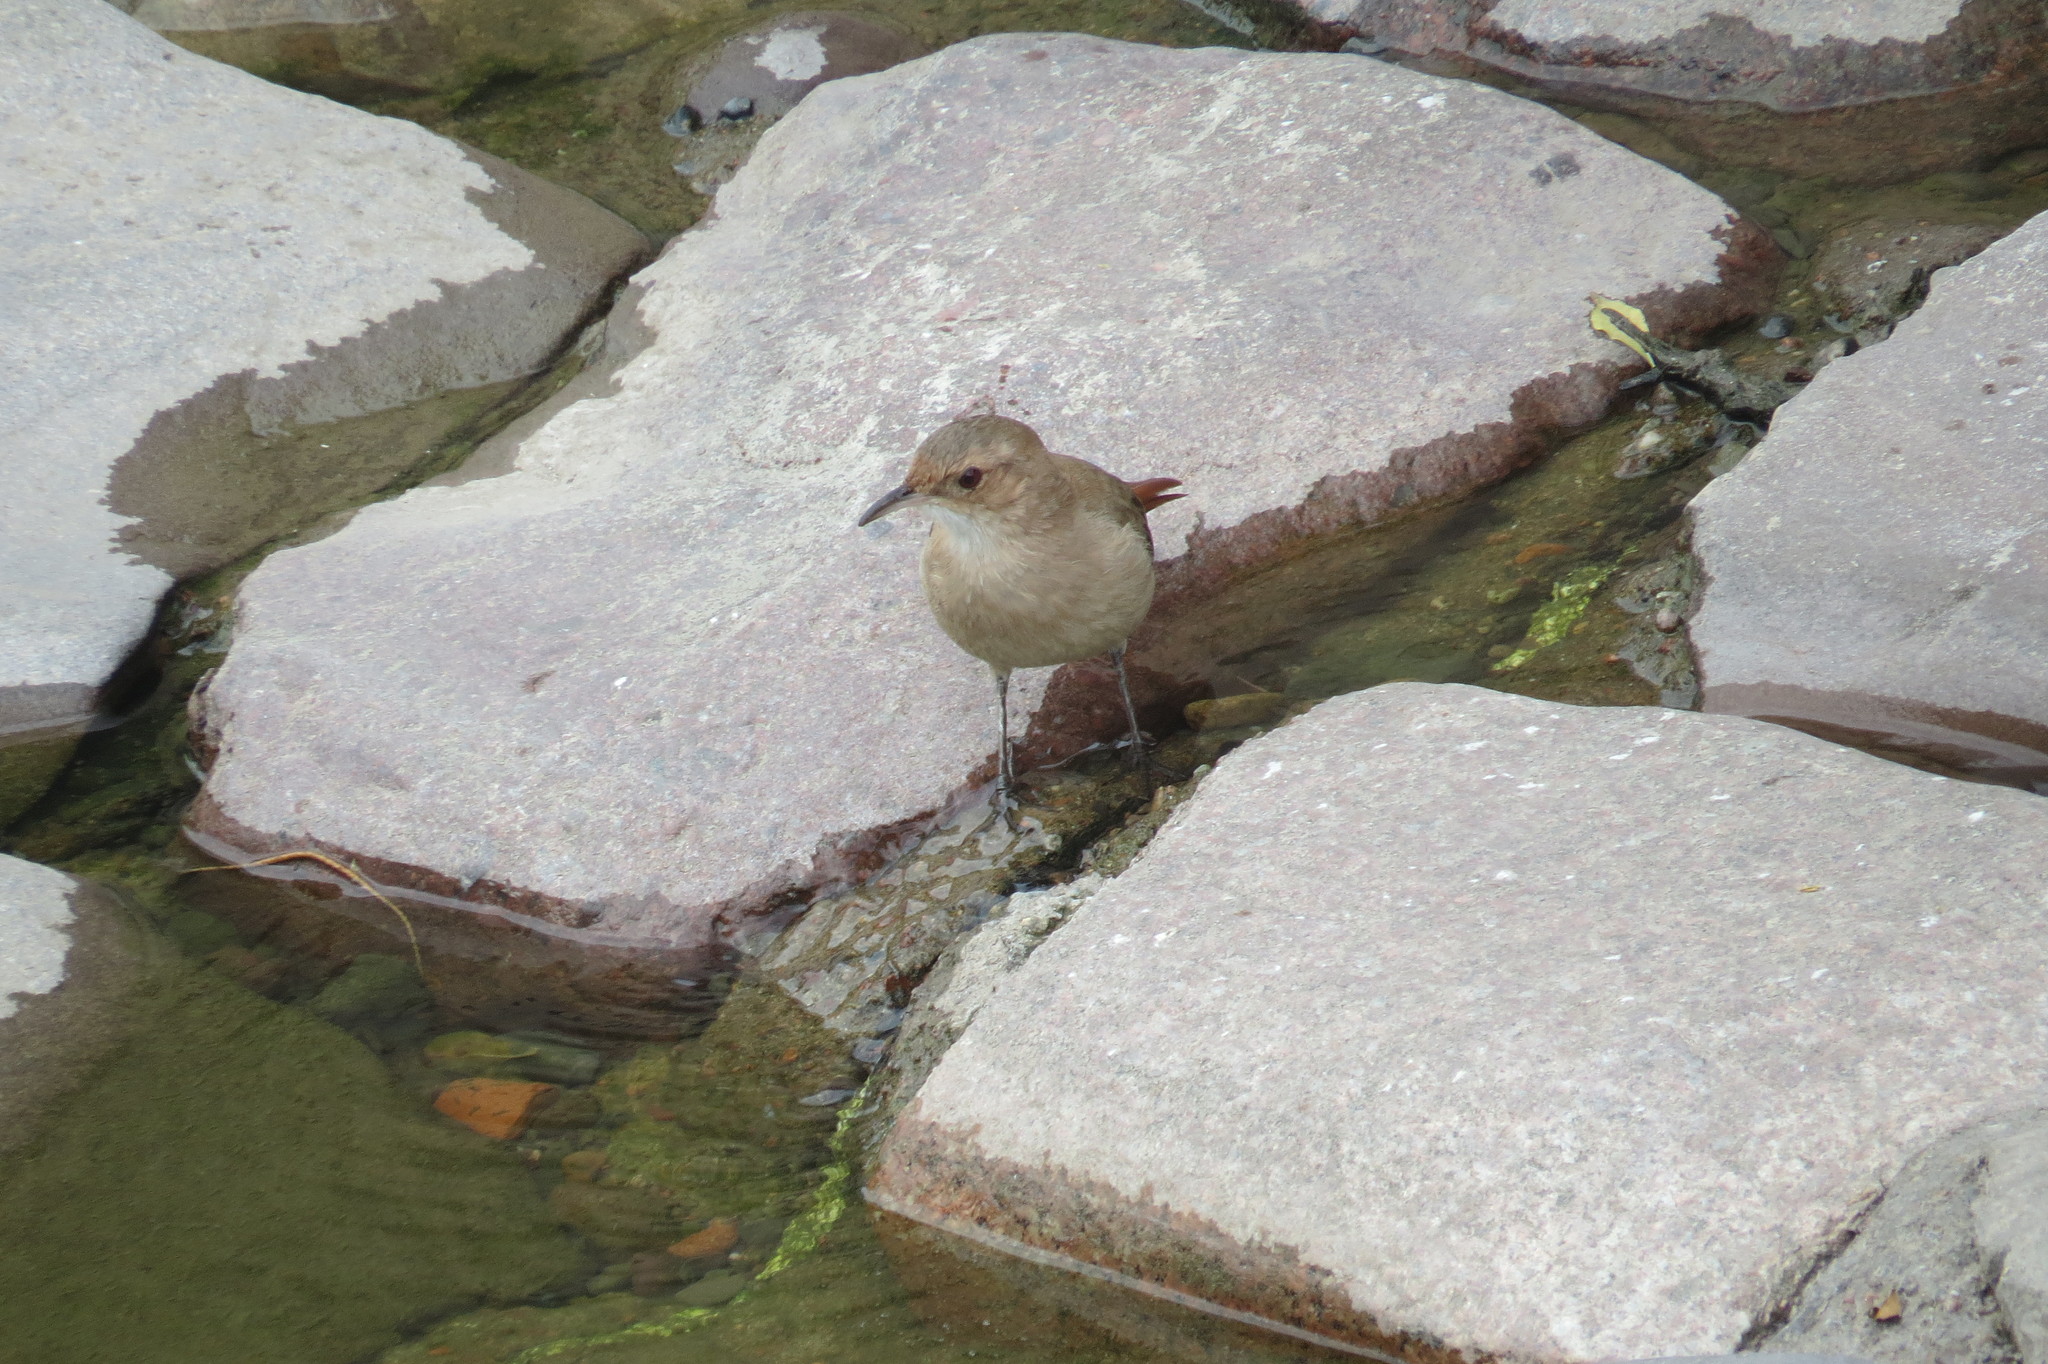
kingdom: Animalia
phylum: Chordata
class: Aves
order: Passeriformes
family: Furnariidae
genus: Furnarius
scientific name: Furnarius rufus
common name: Rufous hornero
